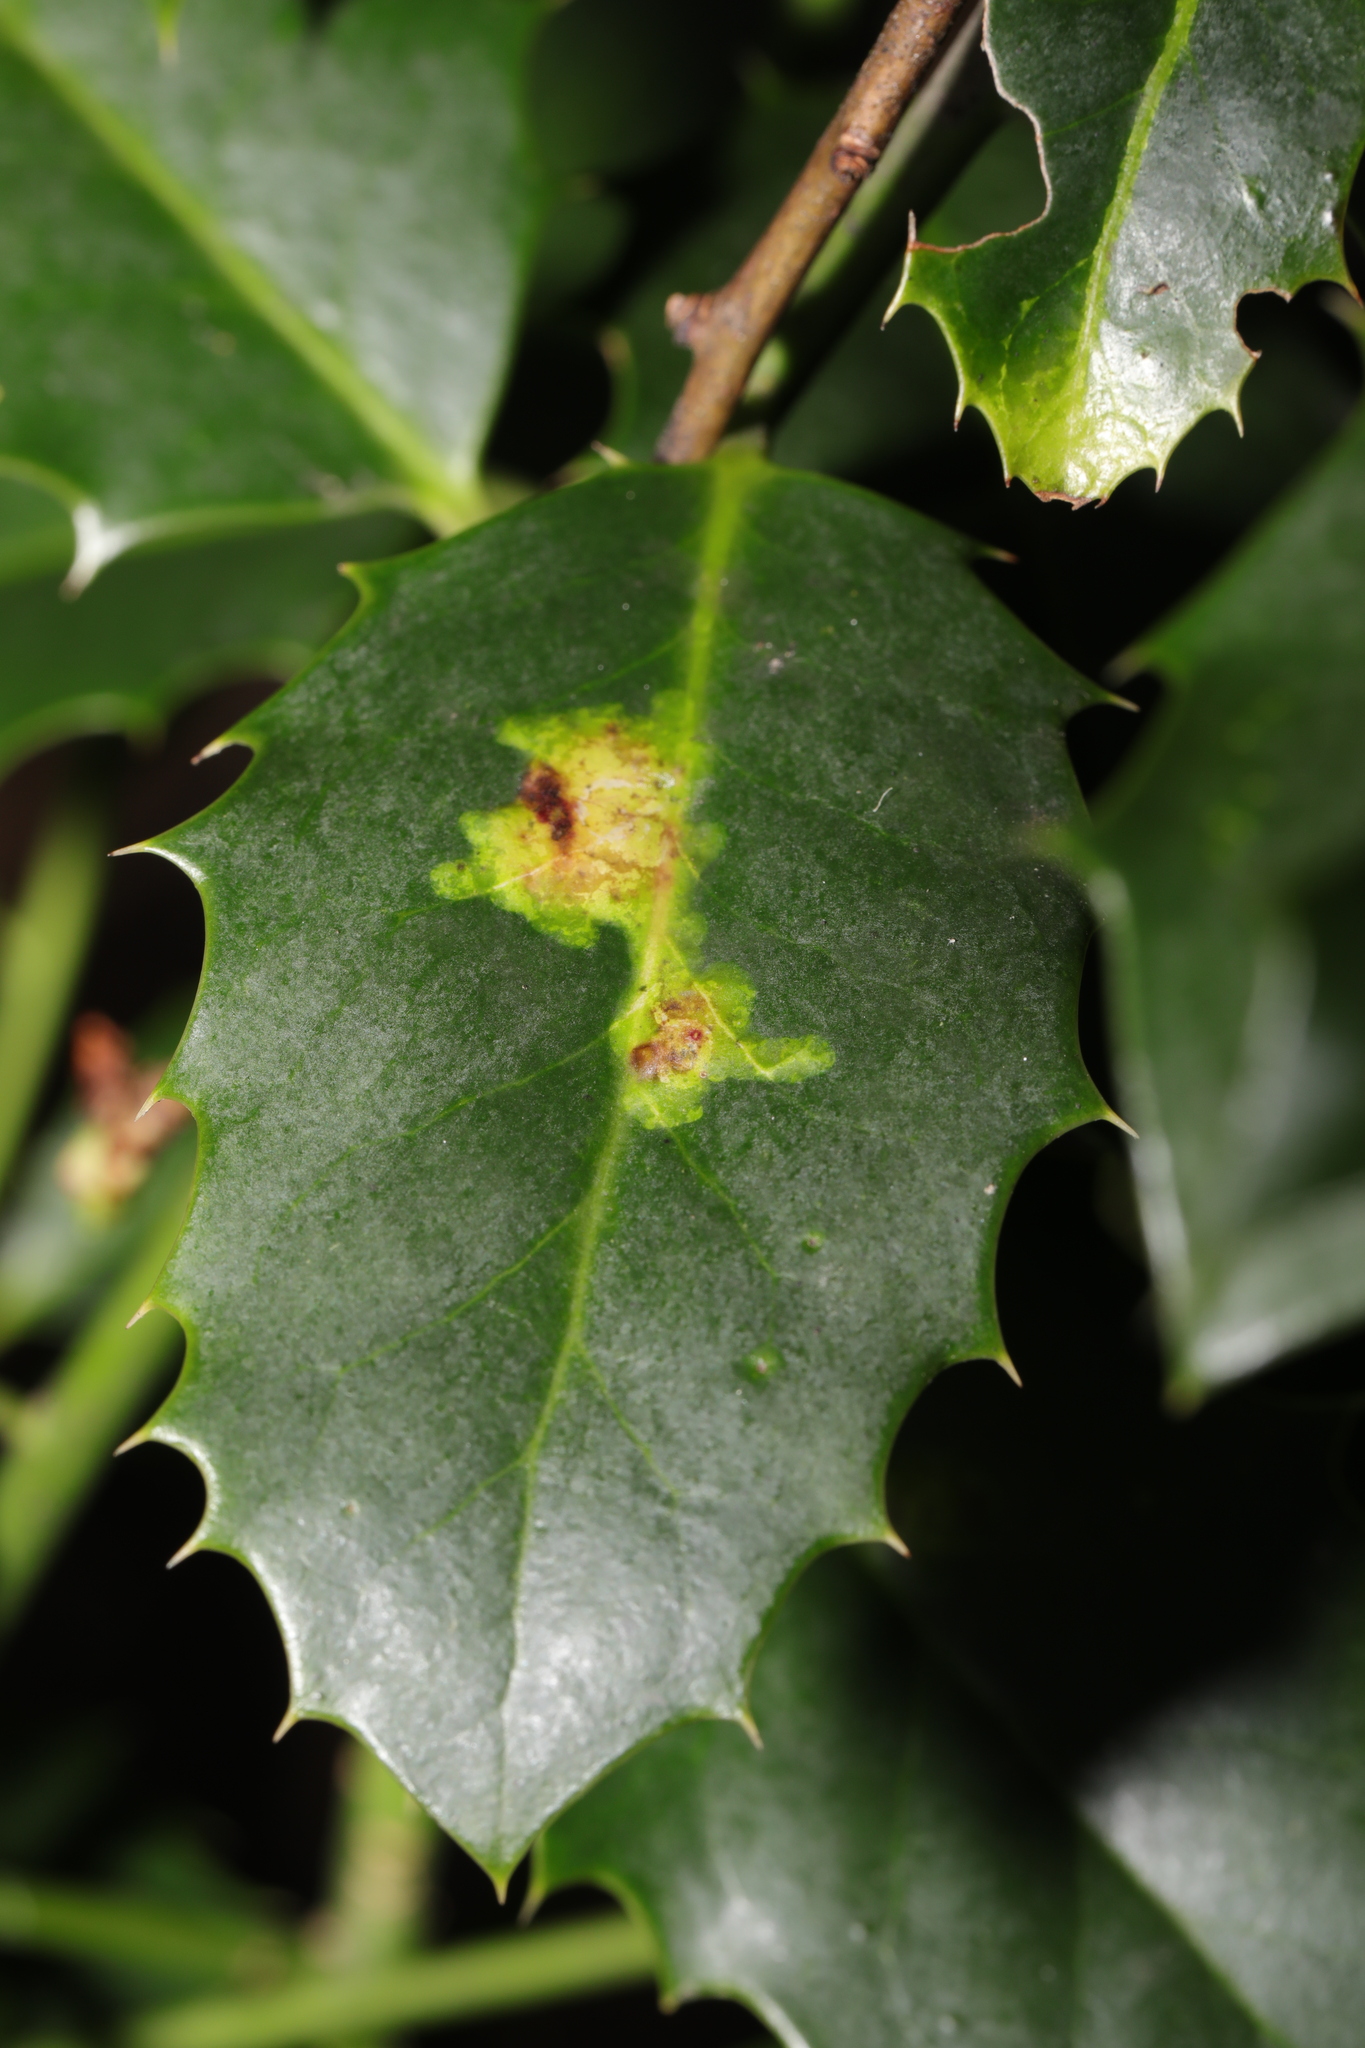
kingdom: Animalia
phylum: Arthropoda
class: Insecta
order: Diptera
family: Agromyzidae
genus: Phytomyza
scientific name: Phytomyza ilicis
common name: Holly leafminer
